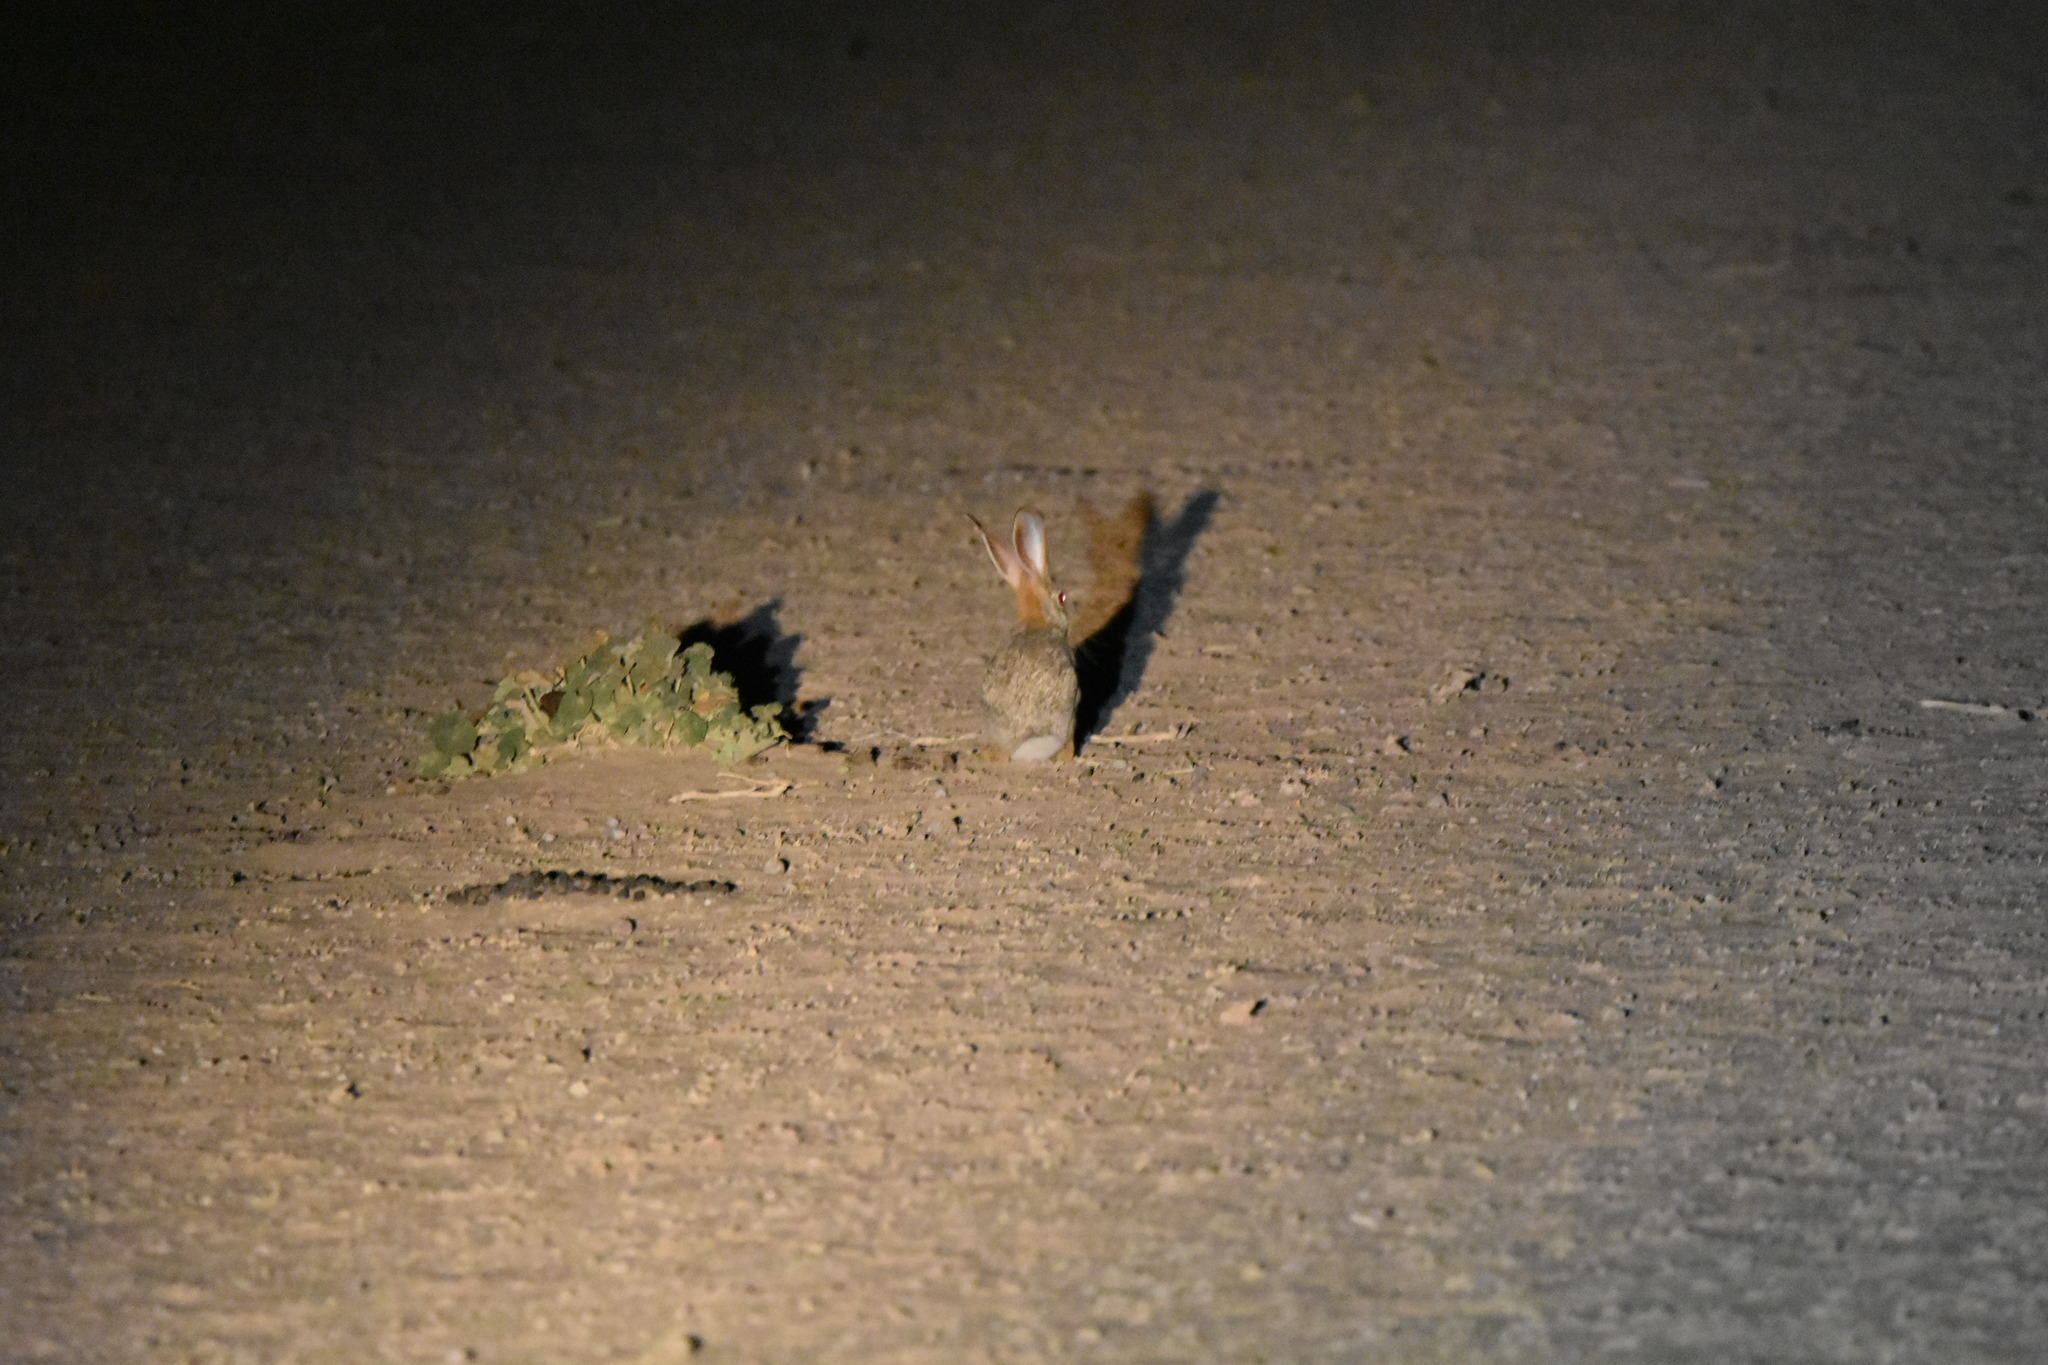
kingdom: Animalia
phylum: Chordata
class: Mammalia
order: Lagomorpha
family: Leporidae
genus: Lepus
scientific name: Lepus saxatilis
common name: Scrub hare
